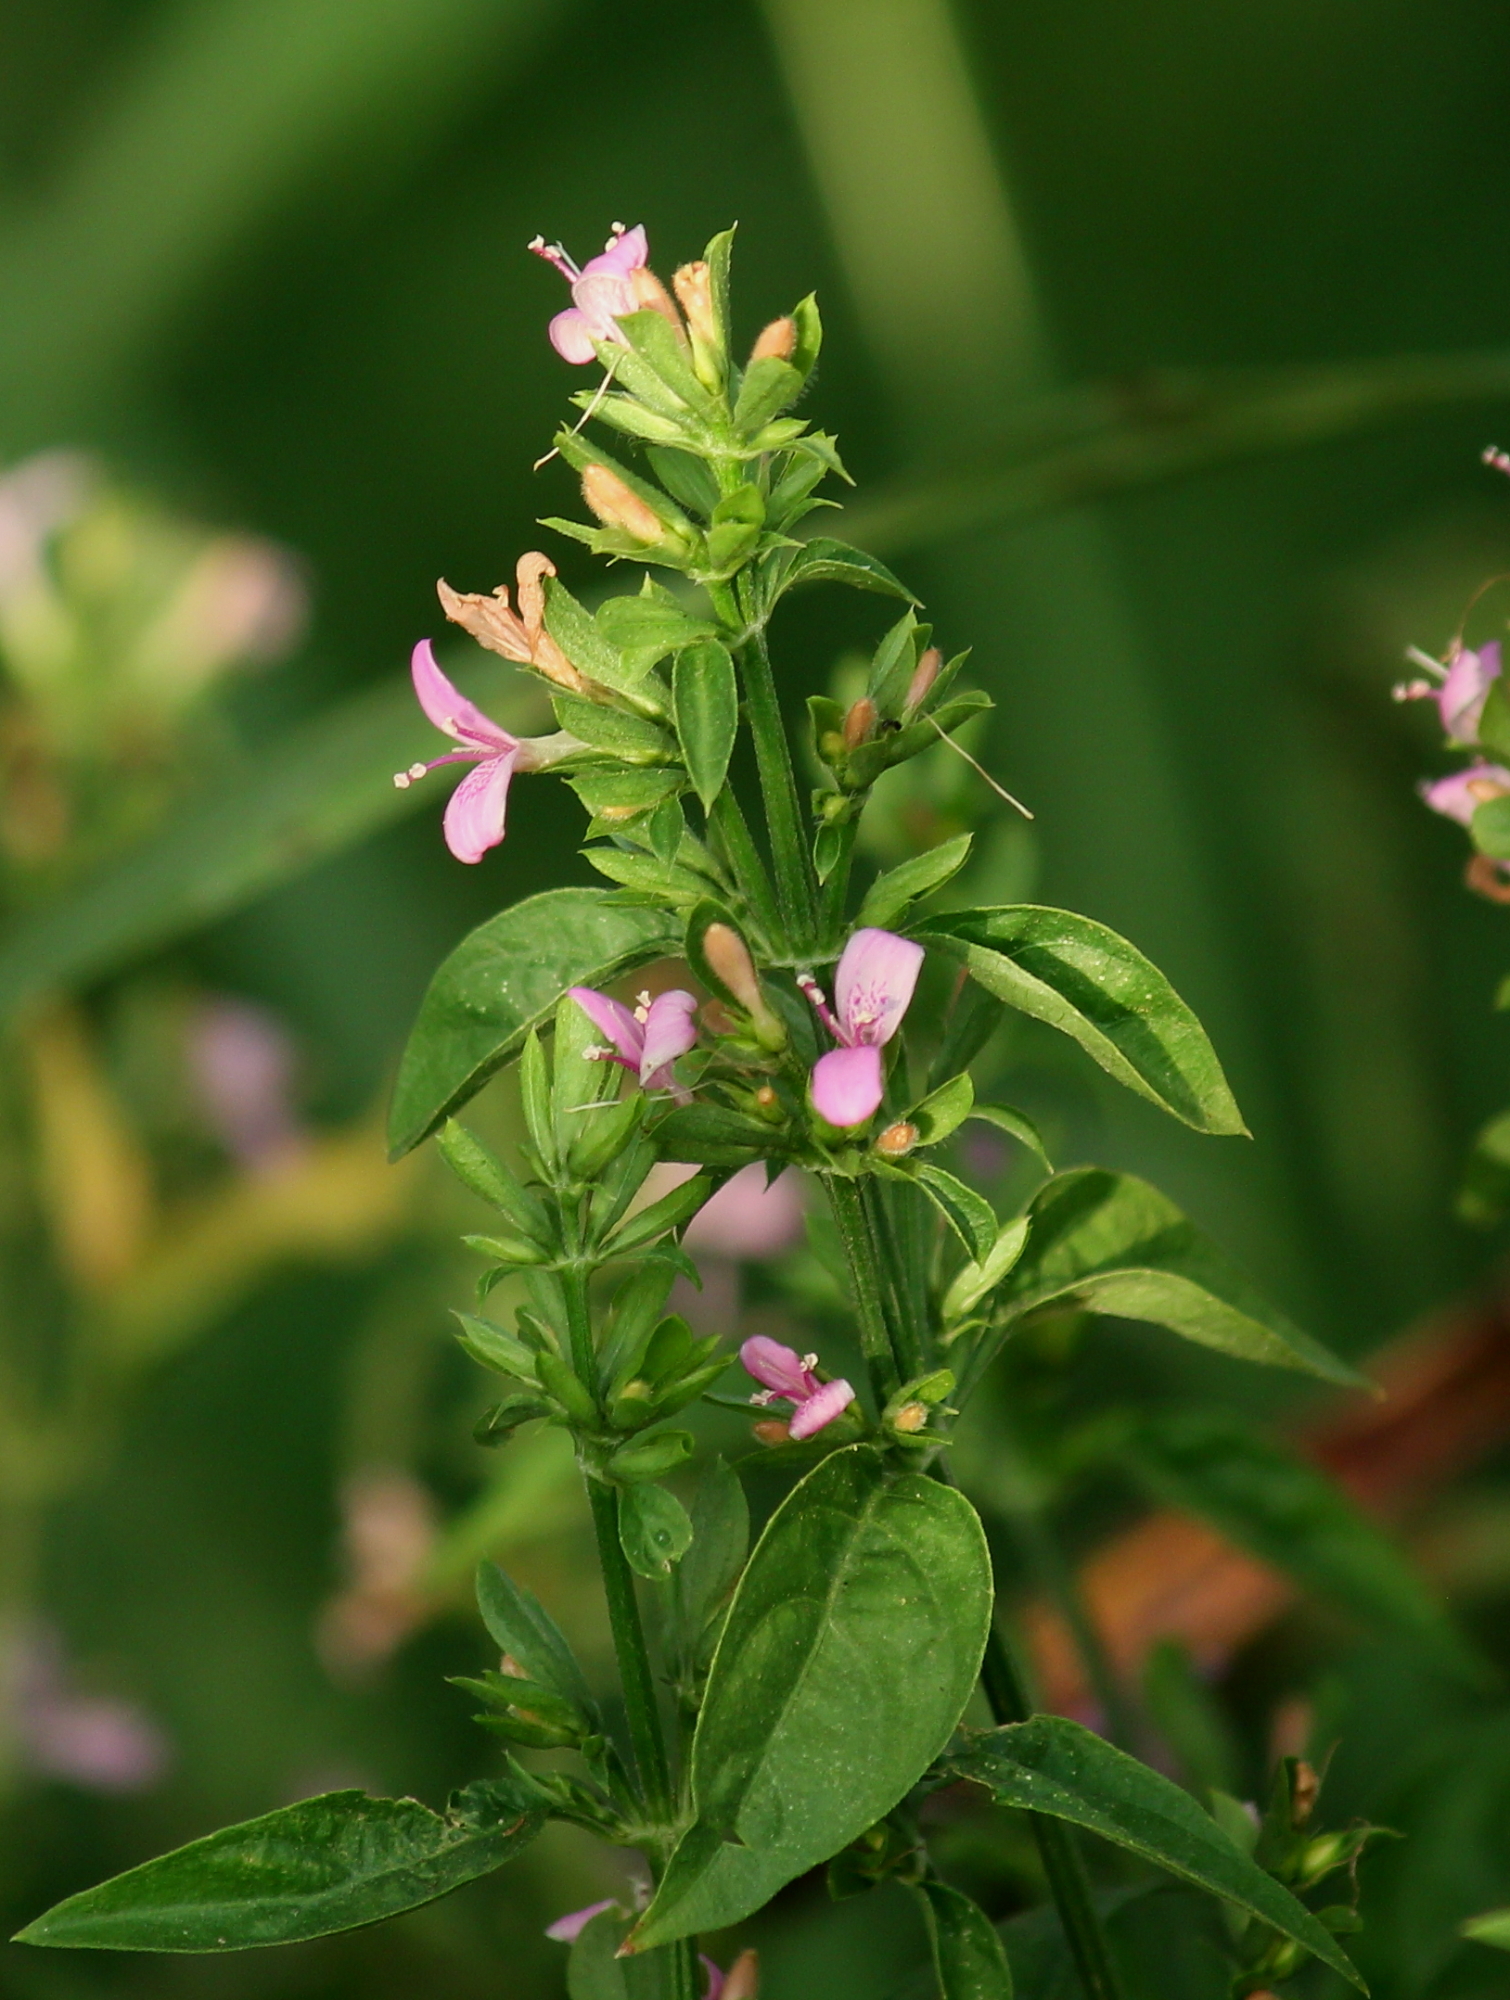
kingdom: Plantae
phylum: Tracheophyta
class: Magnoliopsida
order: Lamiales
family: Acanthaceae
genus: Dicliptera
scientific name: Dicliptera brachiata
